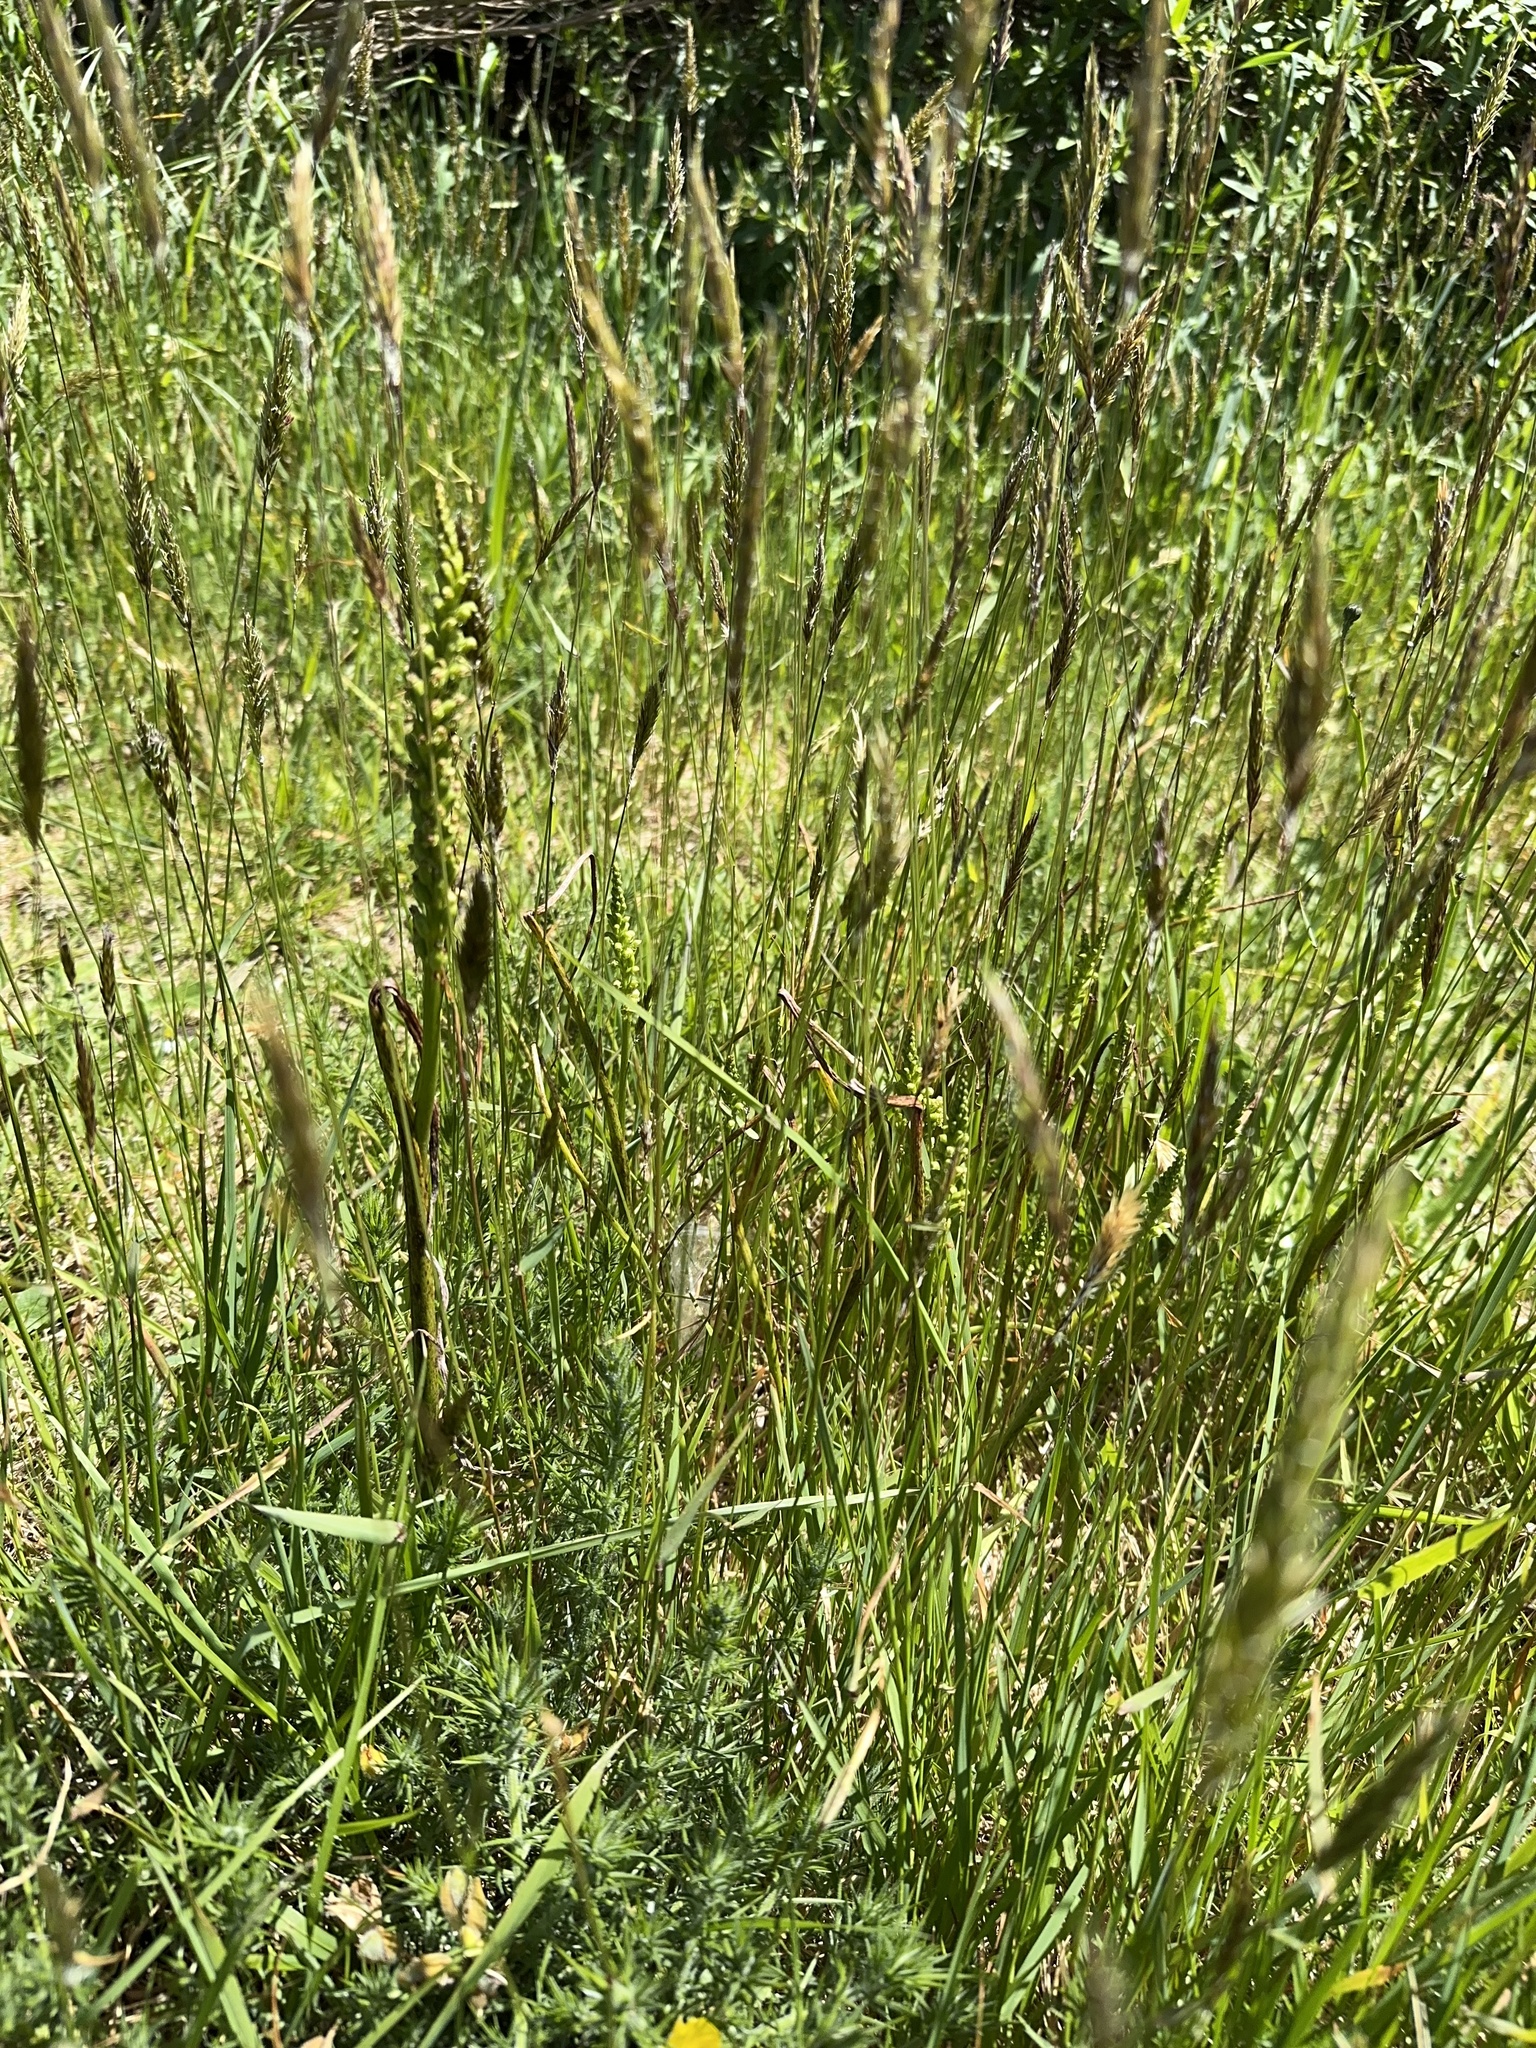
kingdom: Plantae
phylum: Tracheophyta
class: Liliopsida
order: Asparagales
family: Orchidaceae
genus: Microtis
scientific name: Microtis unifolia
